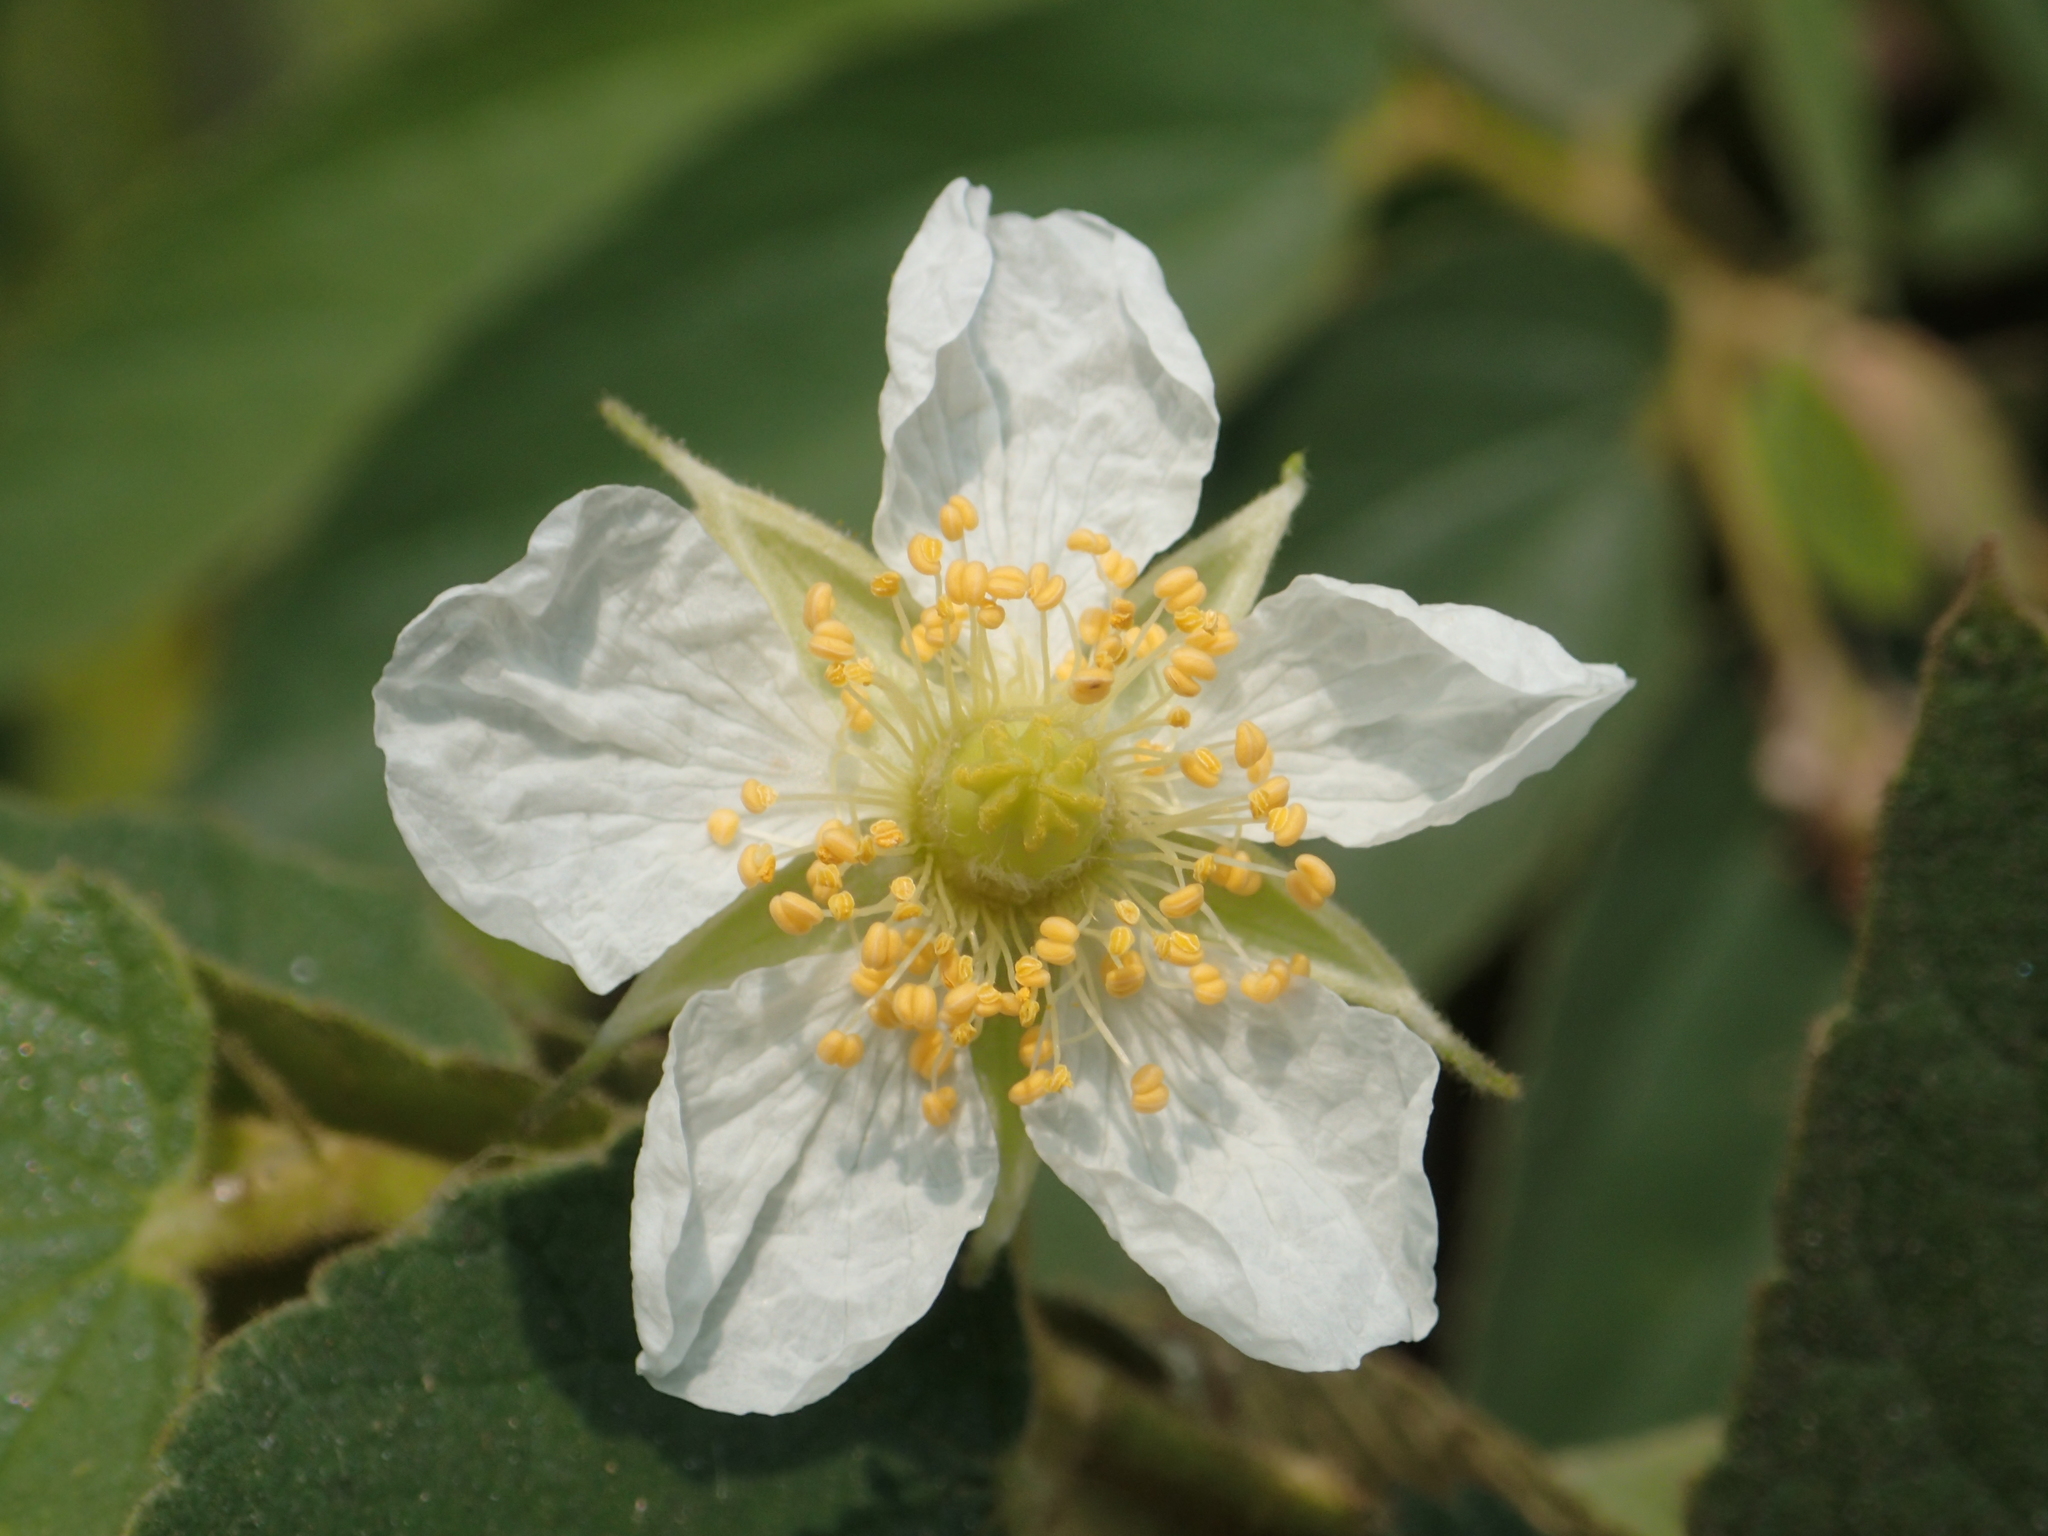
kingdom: Plantae
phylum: Tracheophyta
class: Magnoliopsida
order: Malvales
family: Muntingiaceae
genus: Muntingia
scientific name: Muntingia calabura
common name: Strawberrytree
